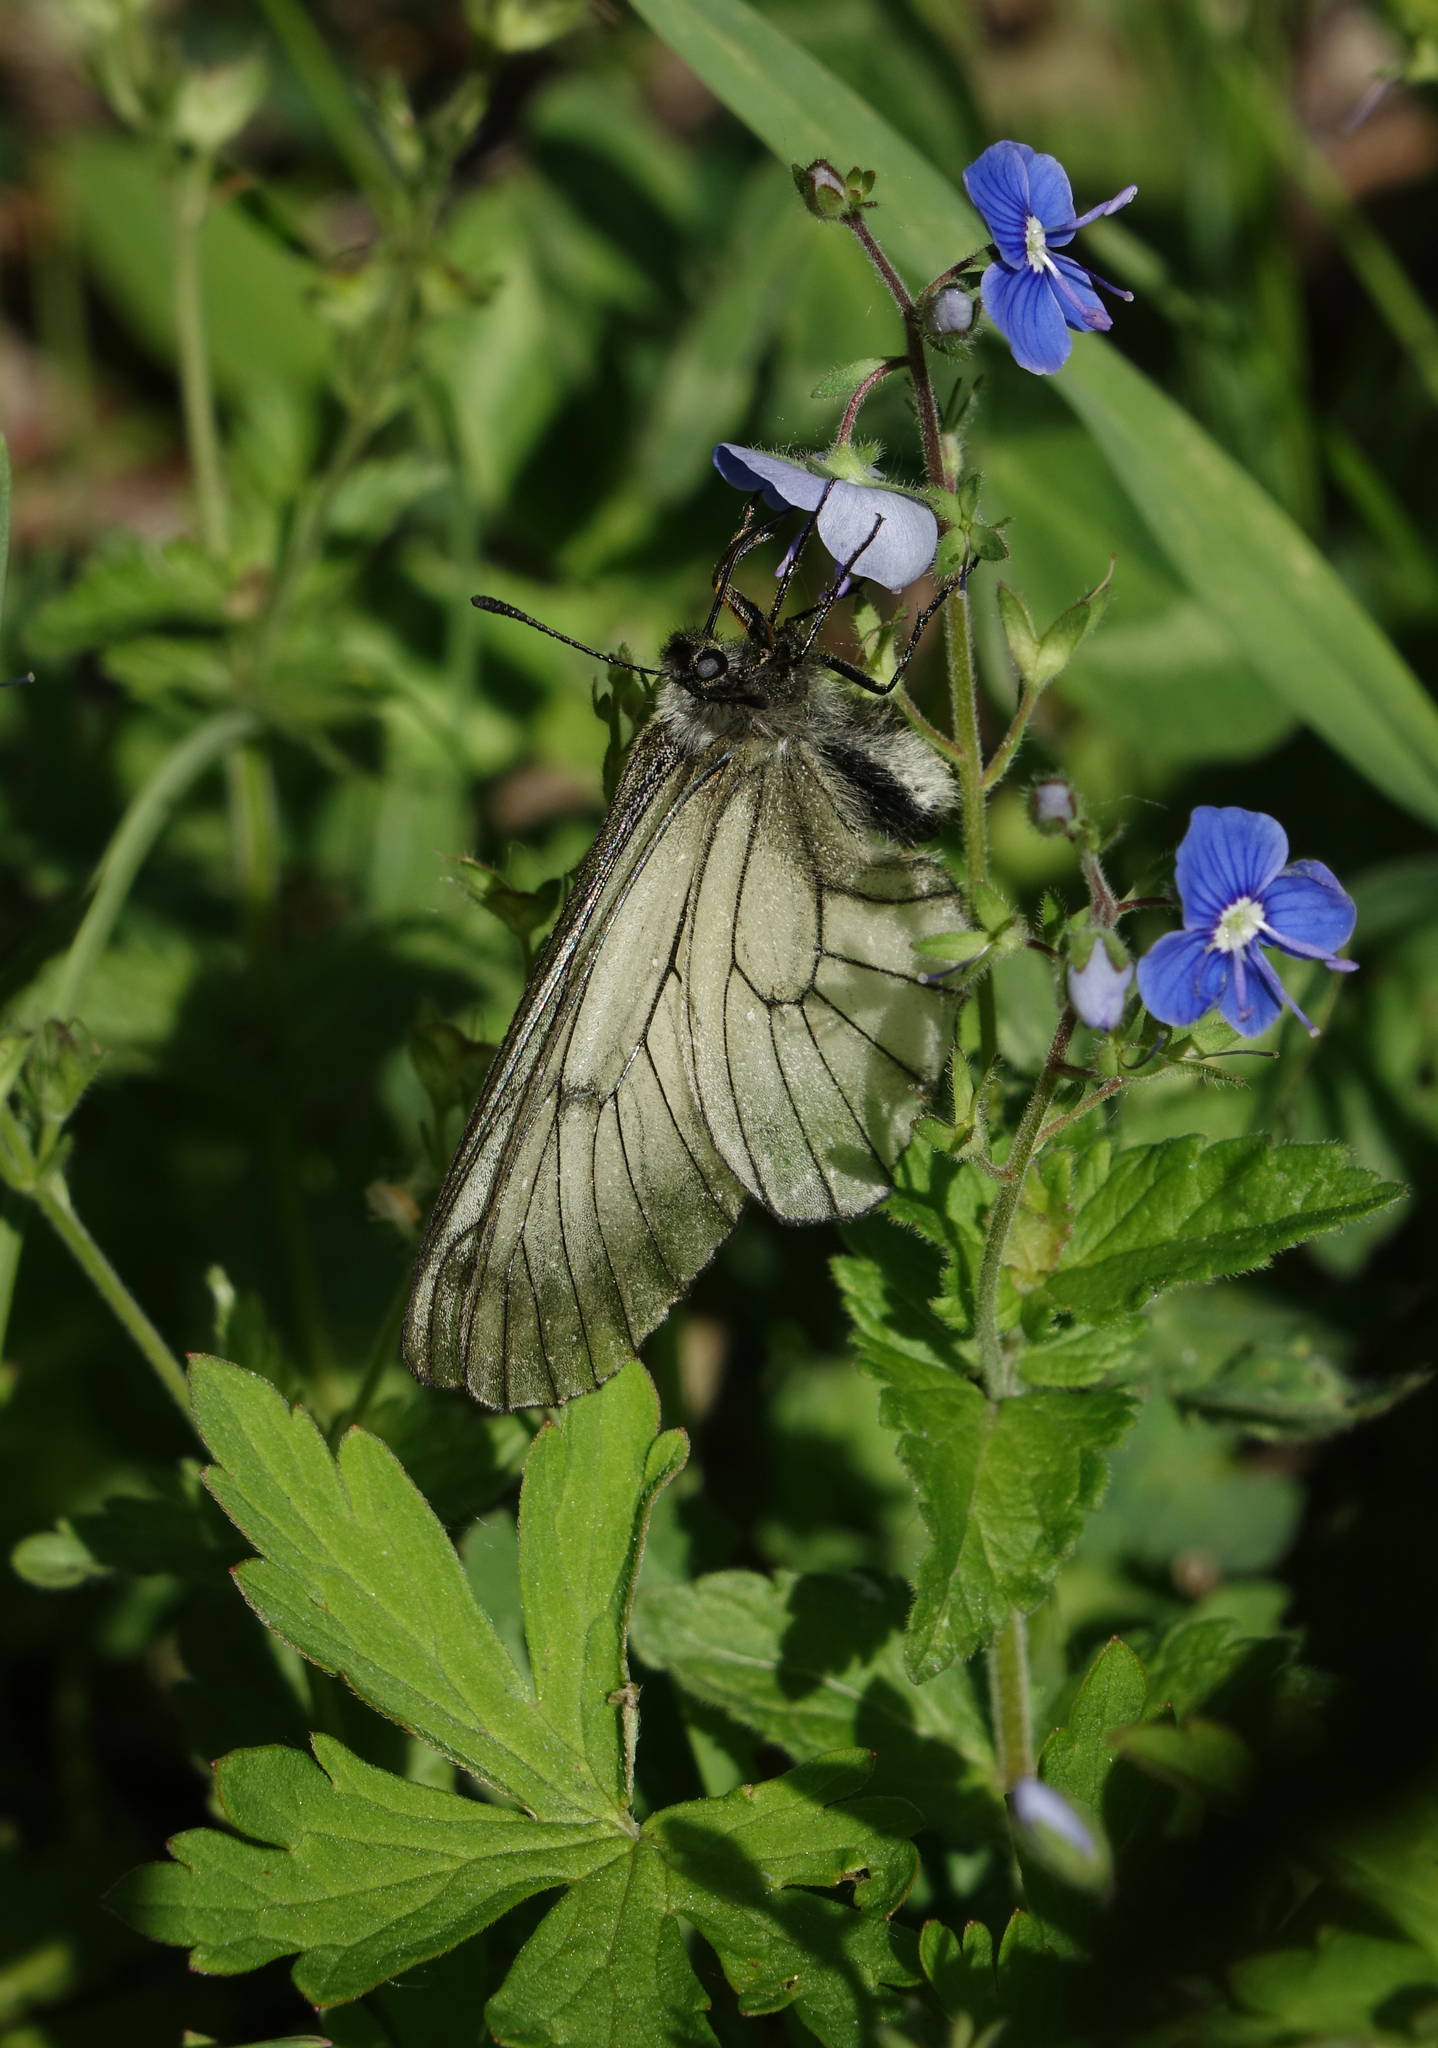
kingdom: Plantae
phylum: Tracheophyta
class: Magnoliopsida
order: Lamiales
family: Plantaginaceae
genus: Veronica
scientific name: Veronica krylovii
